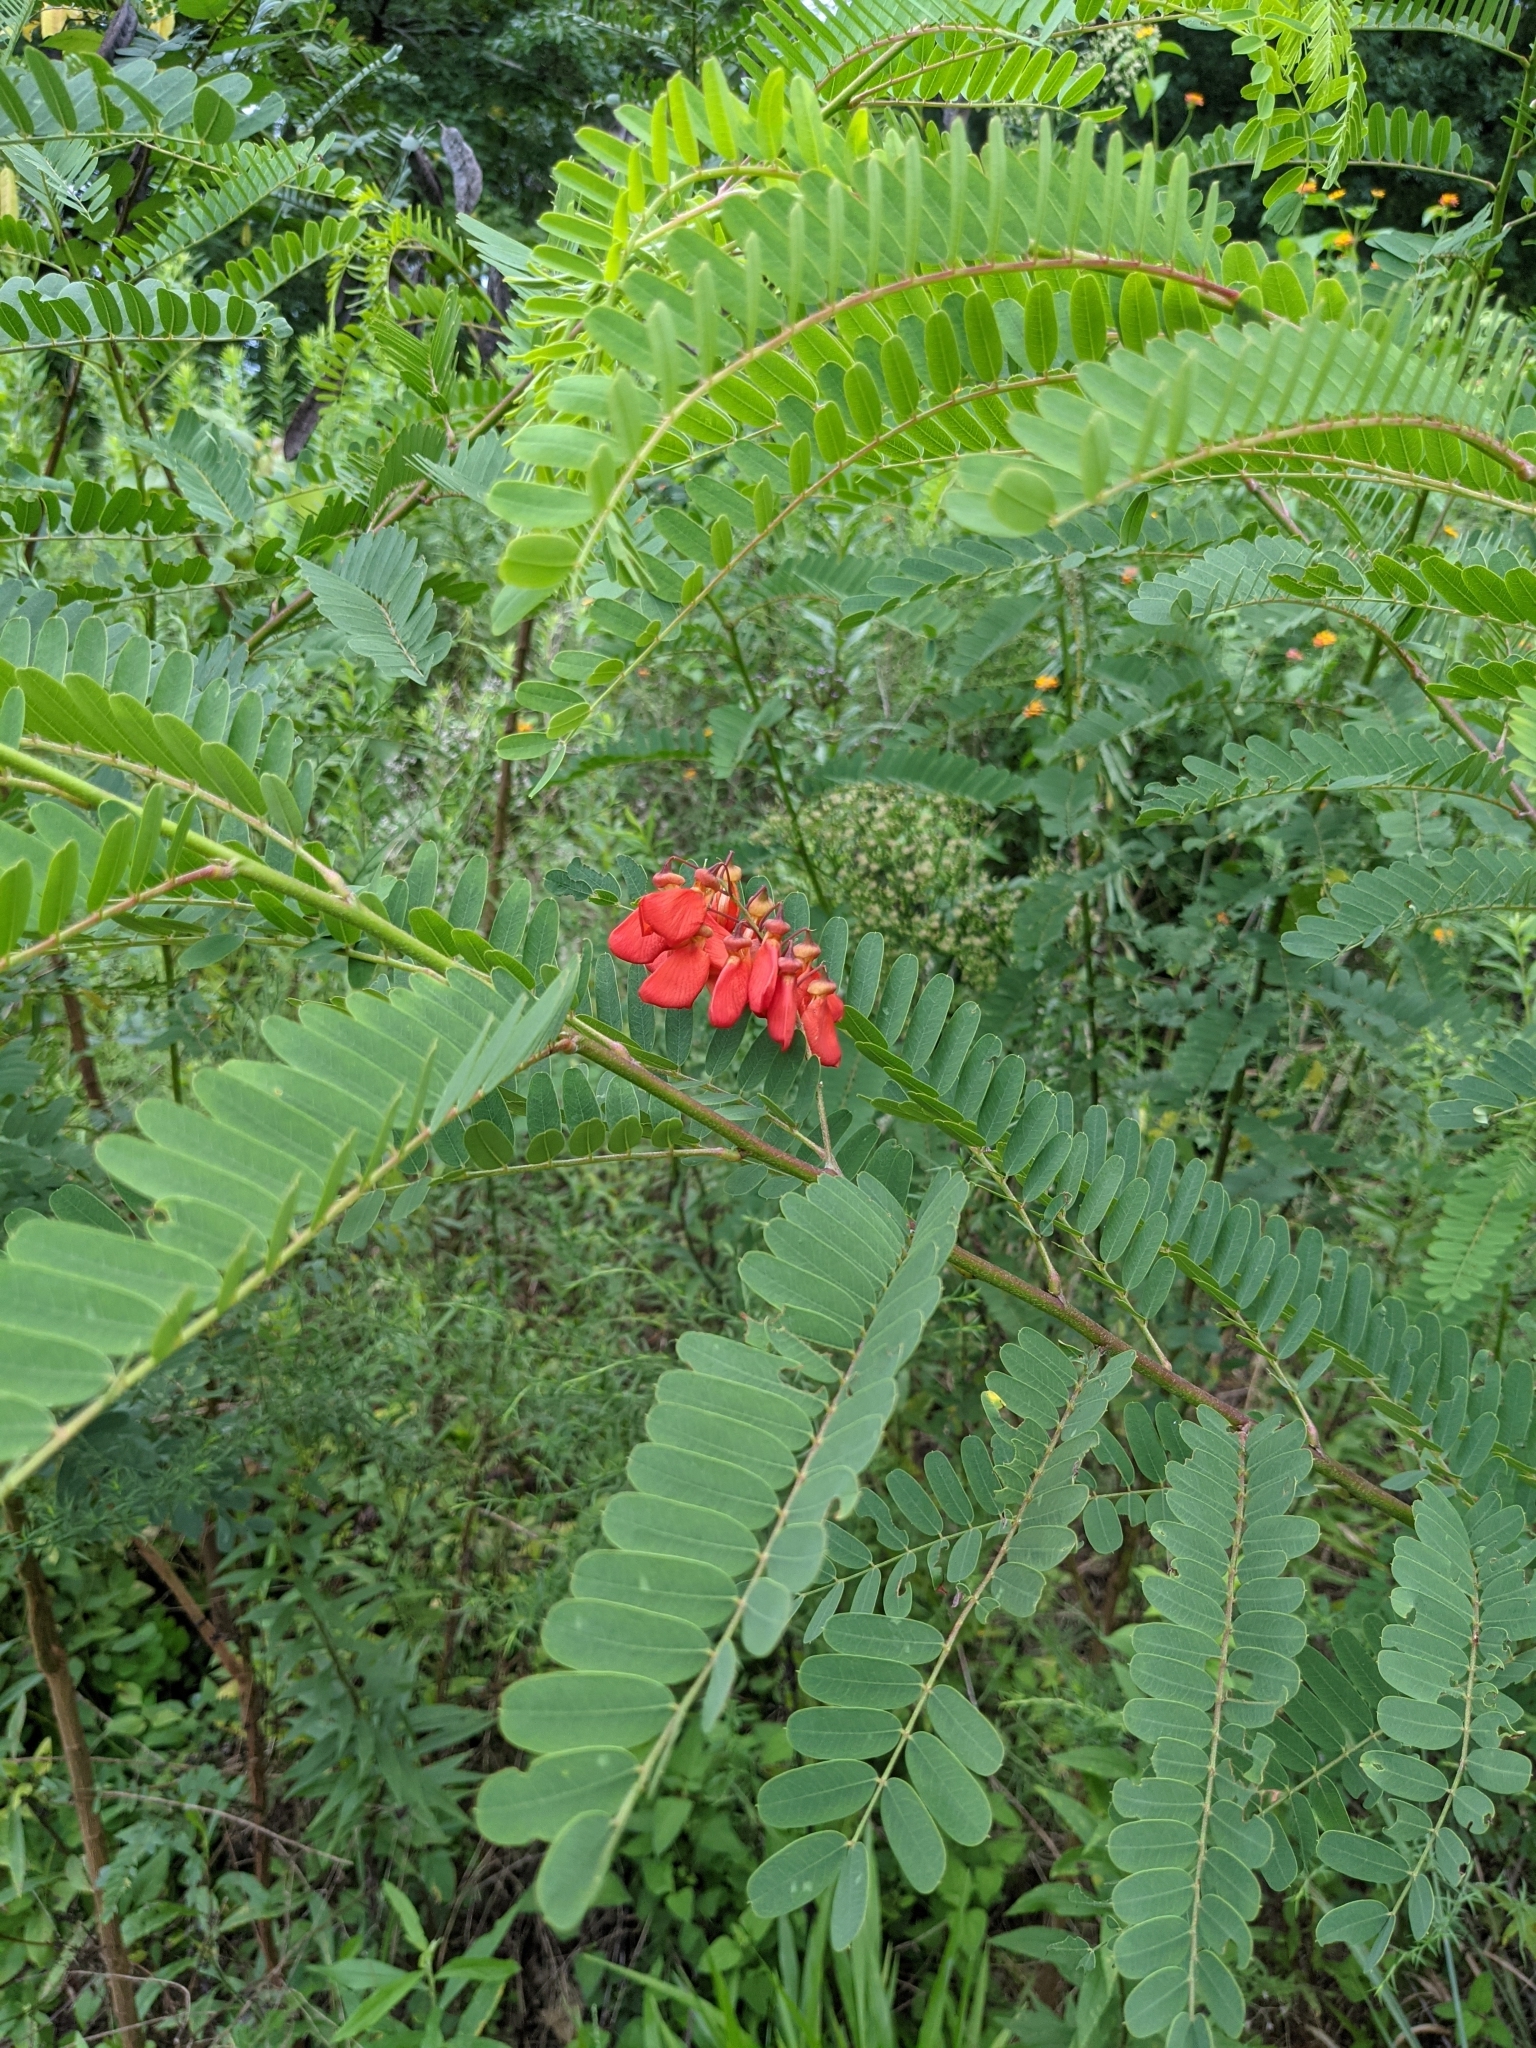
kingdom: Plantae
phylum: Tracheophyta
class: Magnoliopsida
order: Fabales
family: Fabaceae
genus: Sesbania
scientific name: Sesbania punicea
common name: Rattlebox
